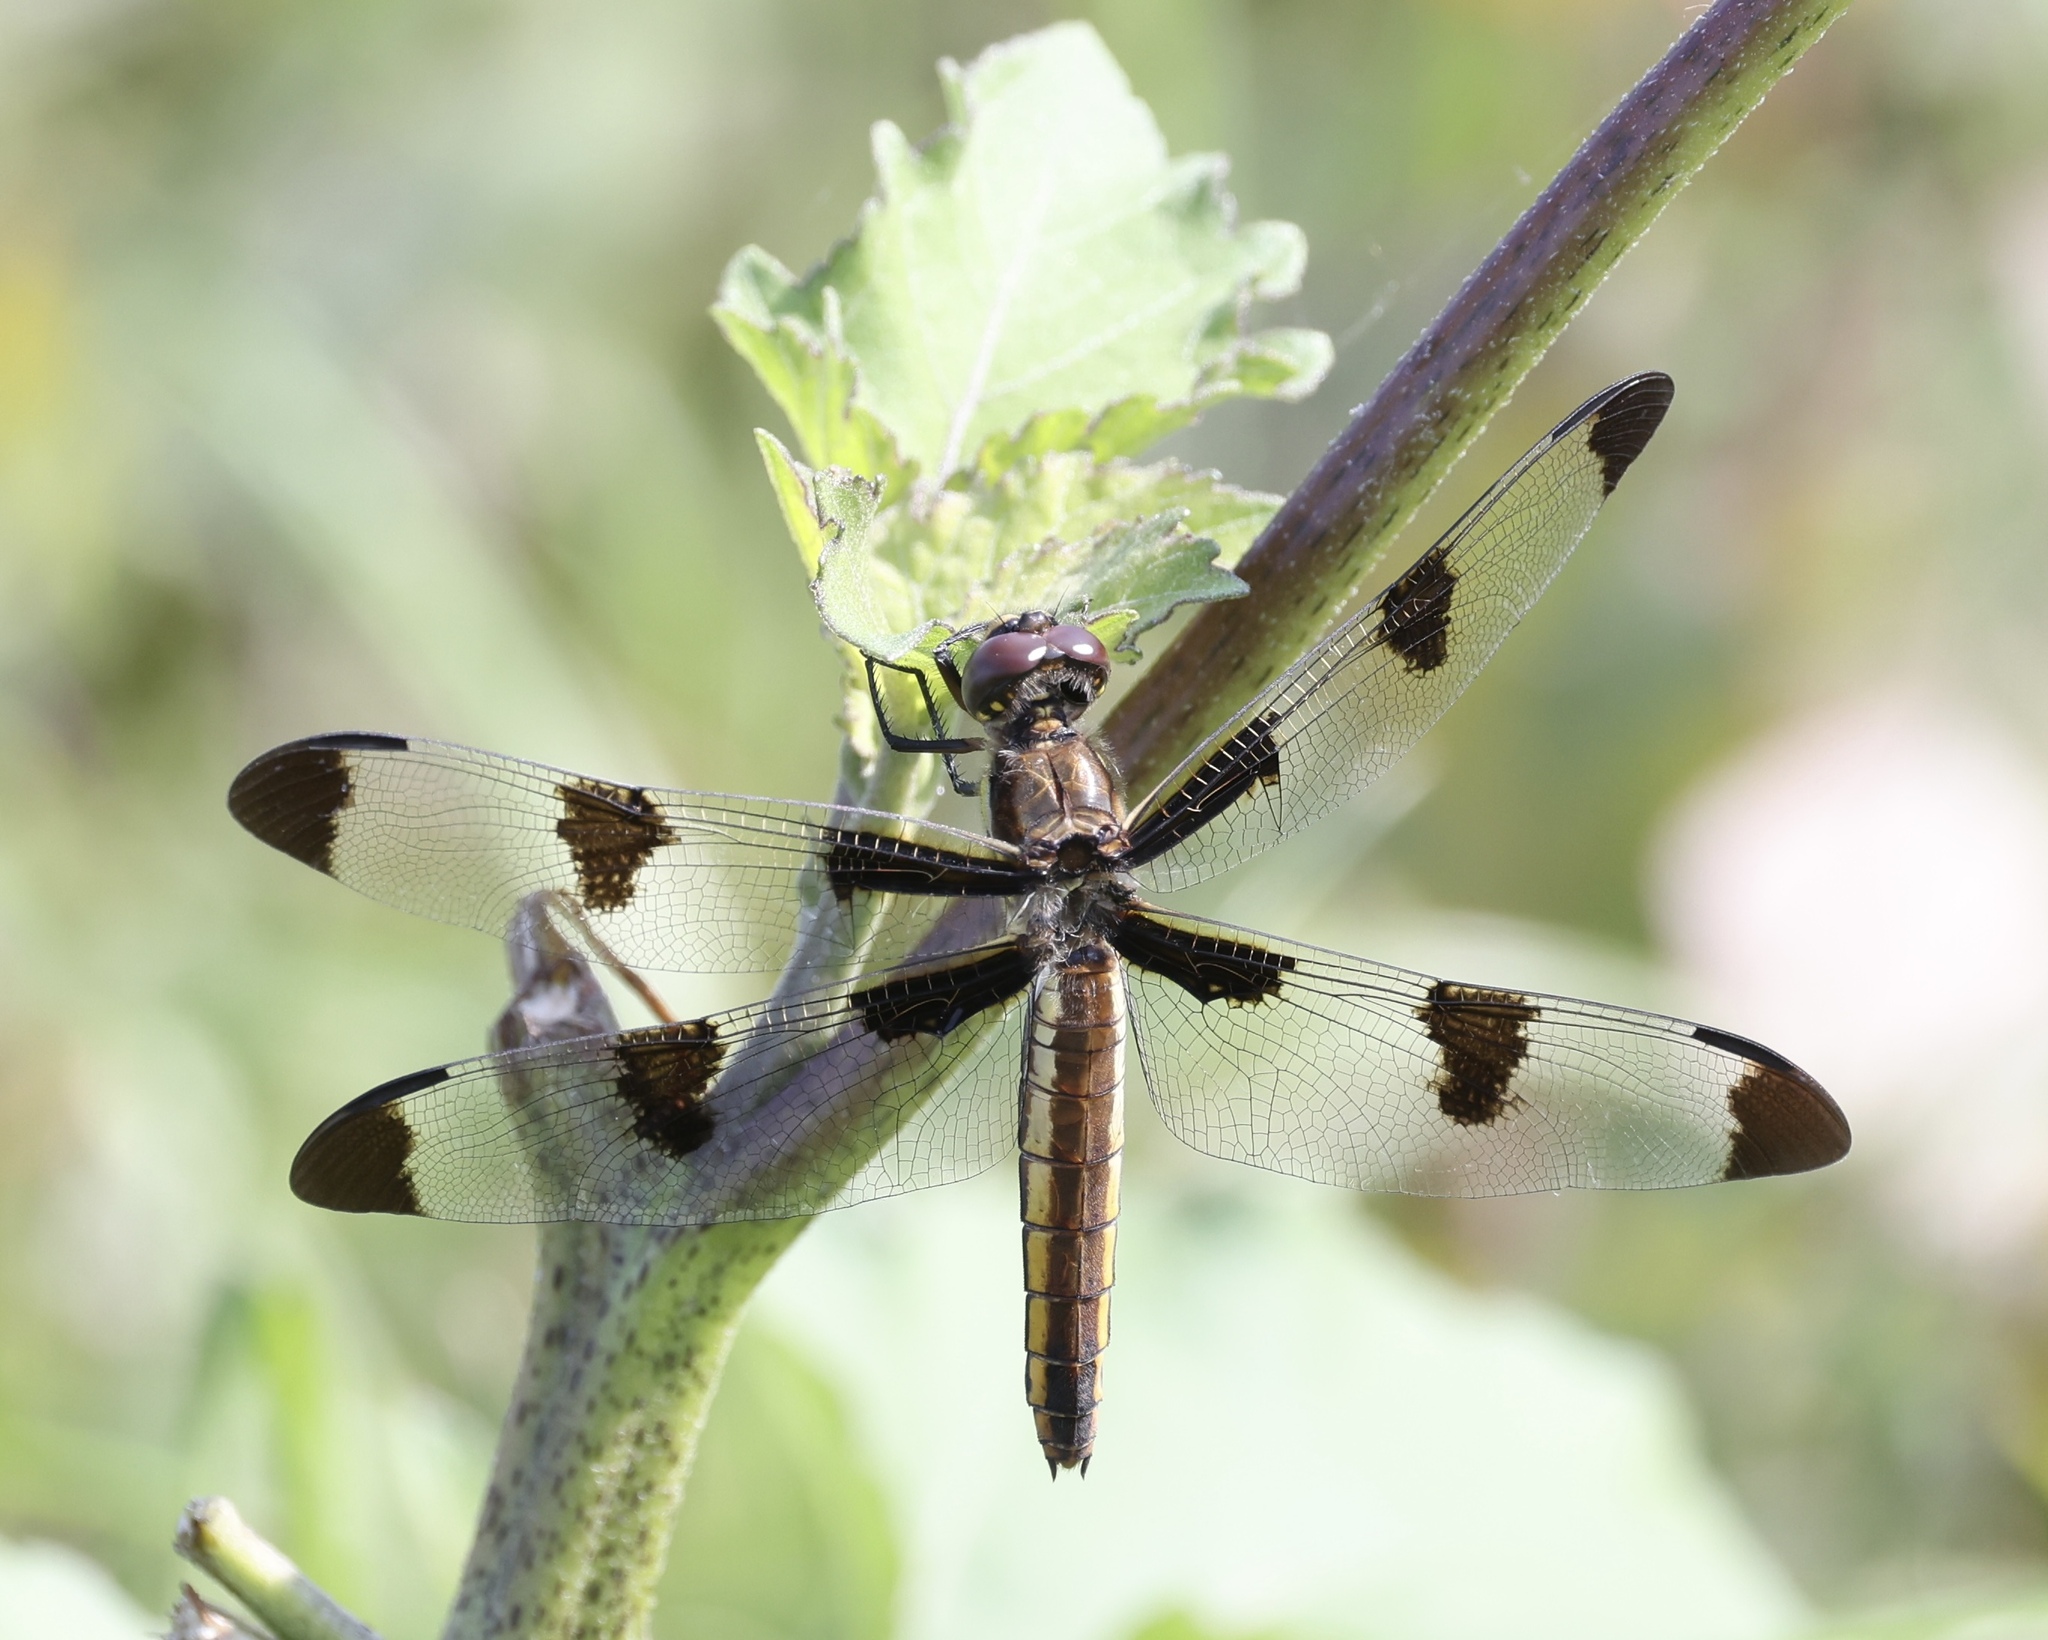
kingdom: Animalia
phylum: Arthropoda
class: Insecta
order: Odonata
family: Libellulidae
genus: Libellula
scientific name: Libellula pulchella
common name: Twelve-spotted skimmer
